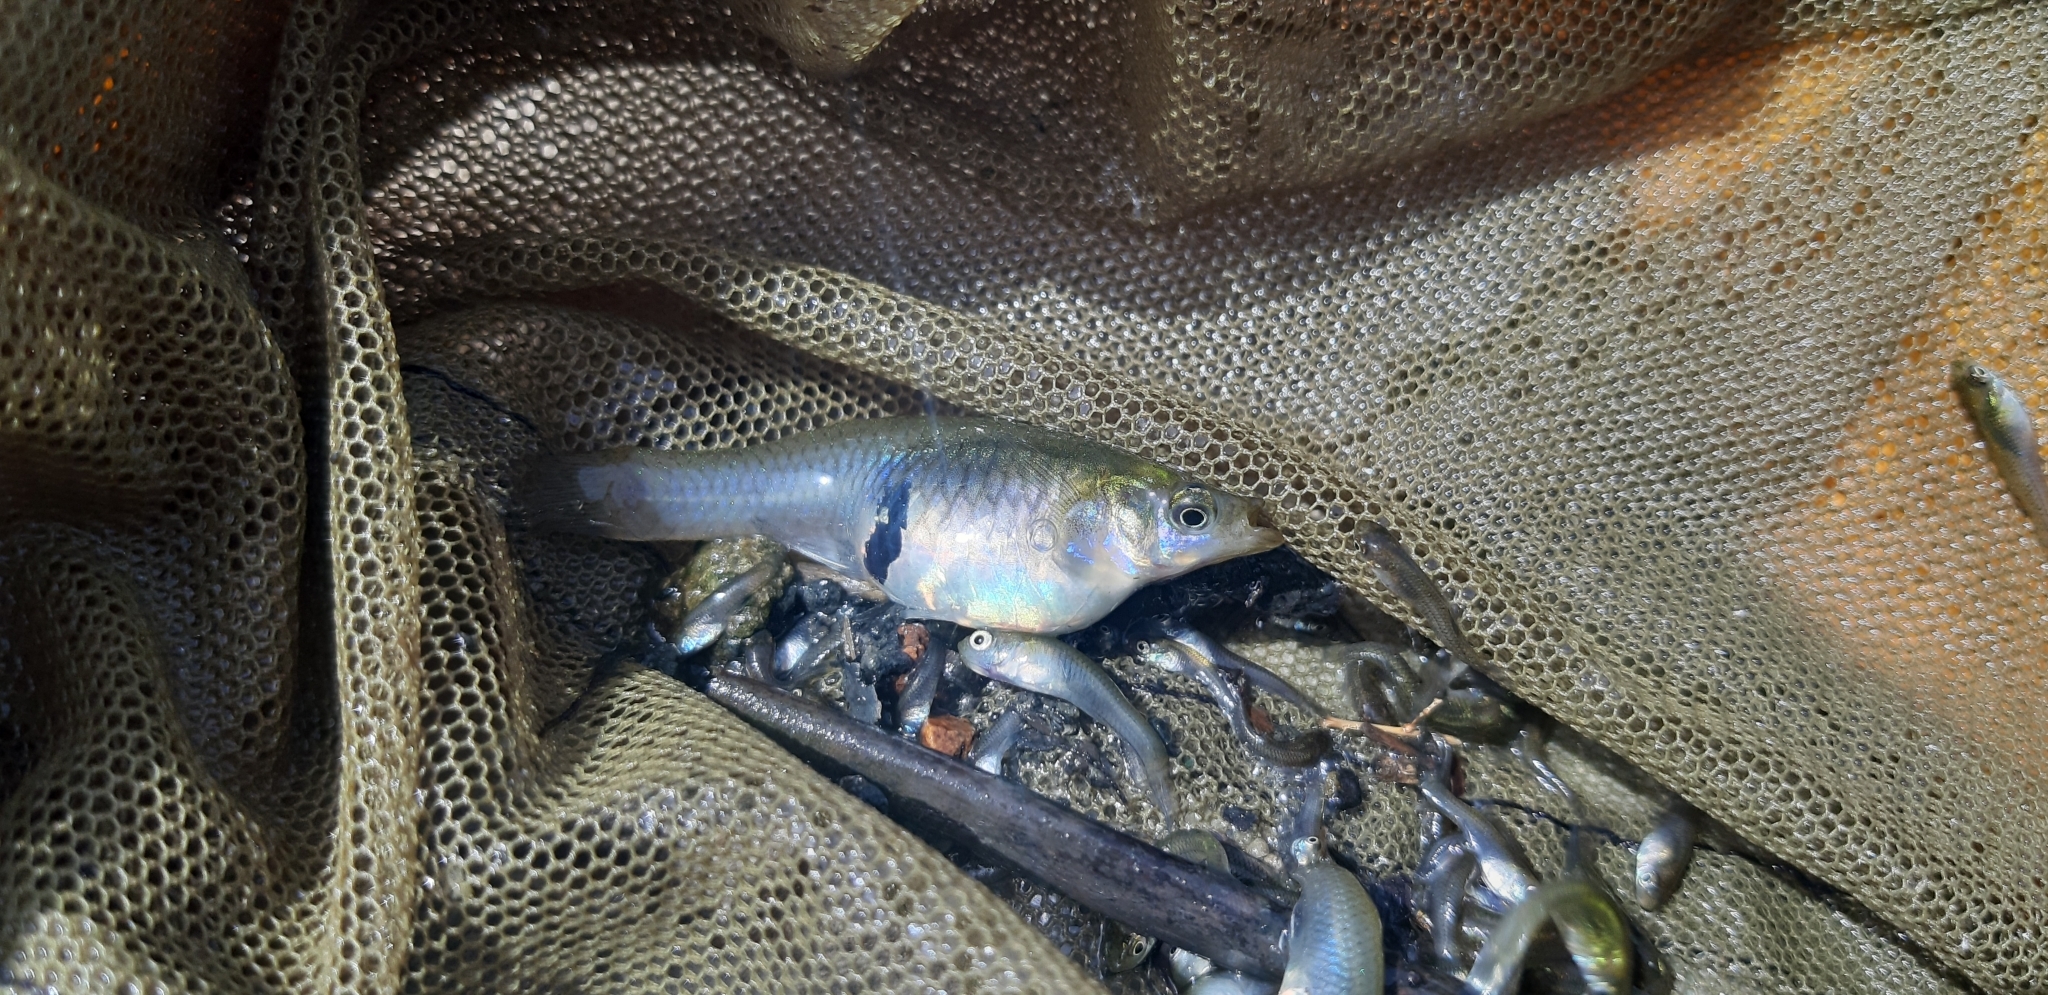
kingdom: Animalia
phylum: Chordata
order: Cyprinodontiformes
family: Poeciliidae
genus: Gambusia
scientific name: Gambusia holbrooki
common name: Eastern mosquitofish
